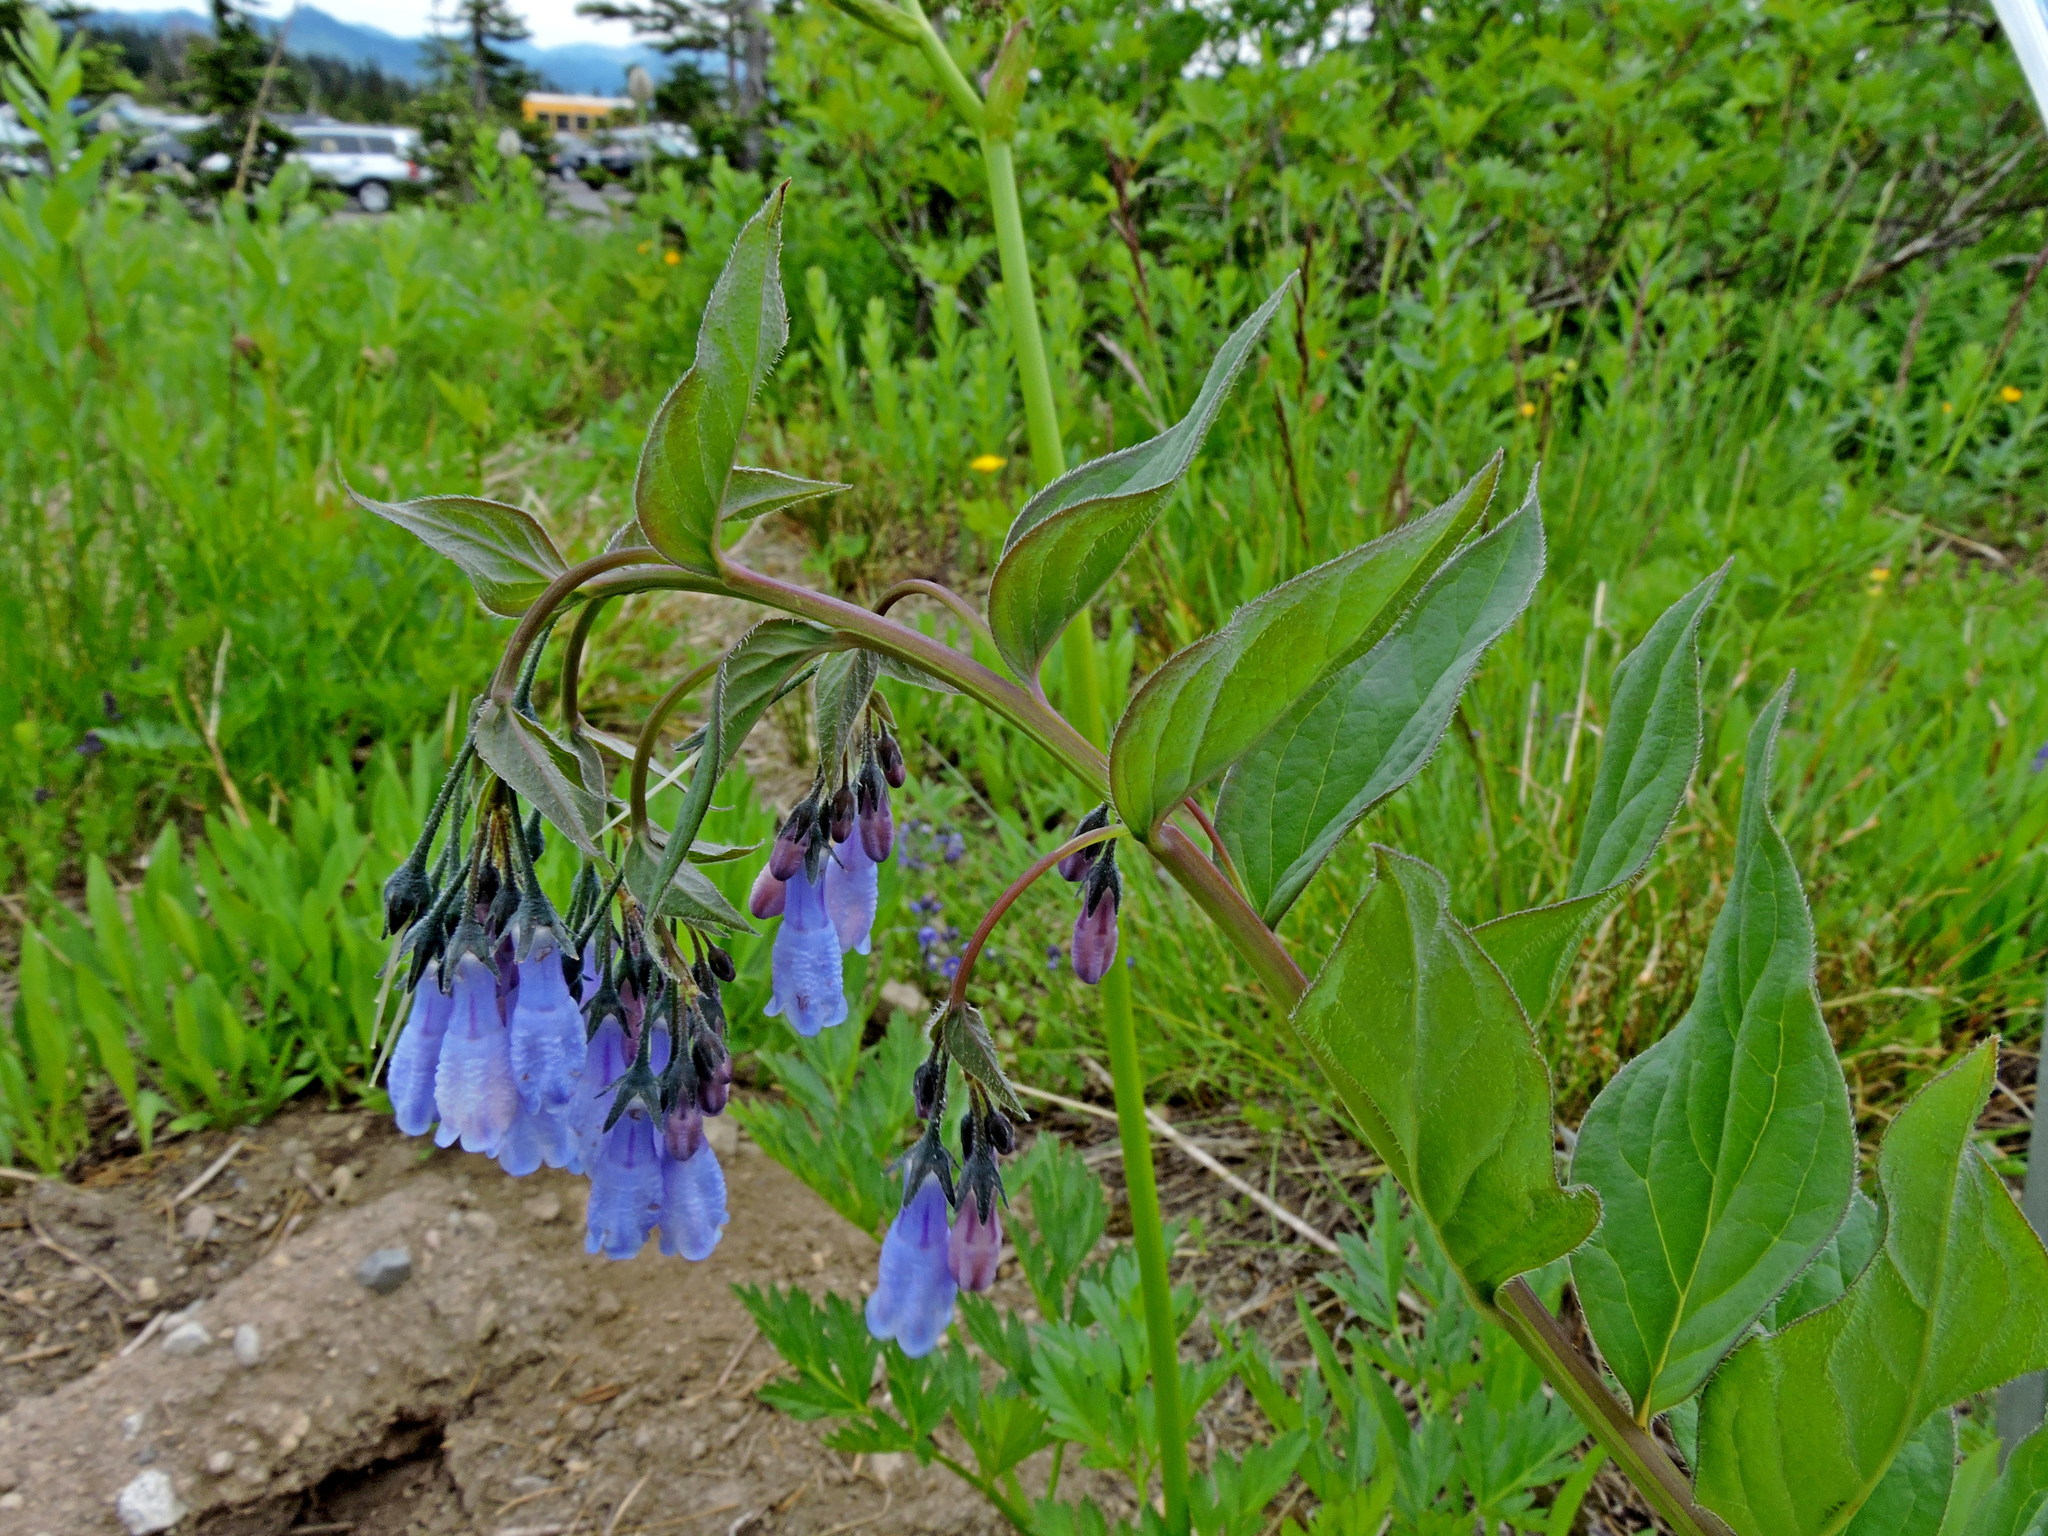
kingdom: Plantae
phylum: Tracheophyta
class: Magnoliopsida
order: Boraginales
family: Boraginaceae
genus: Mertensia
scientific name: Mertensia paniculata
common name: Panicled bluebells
